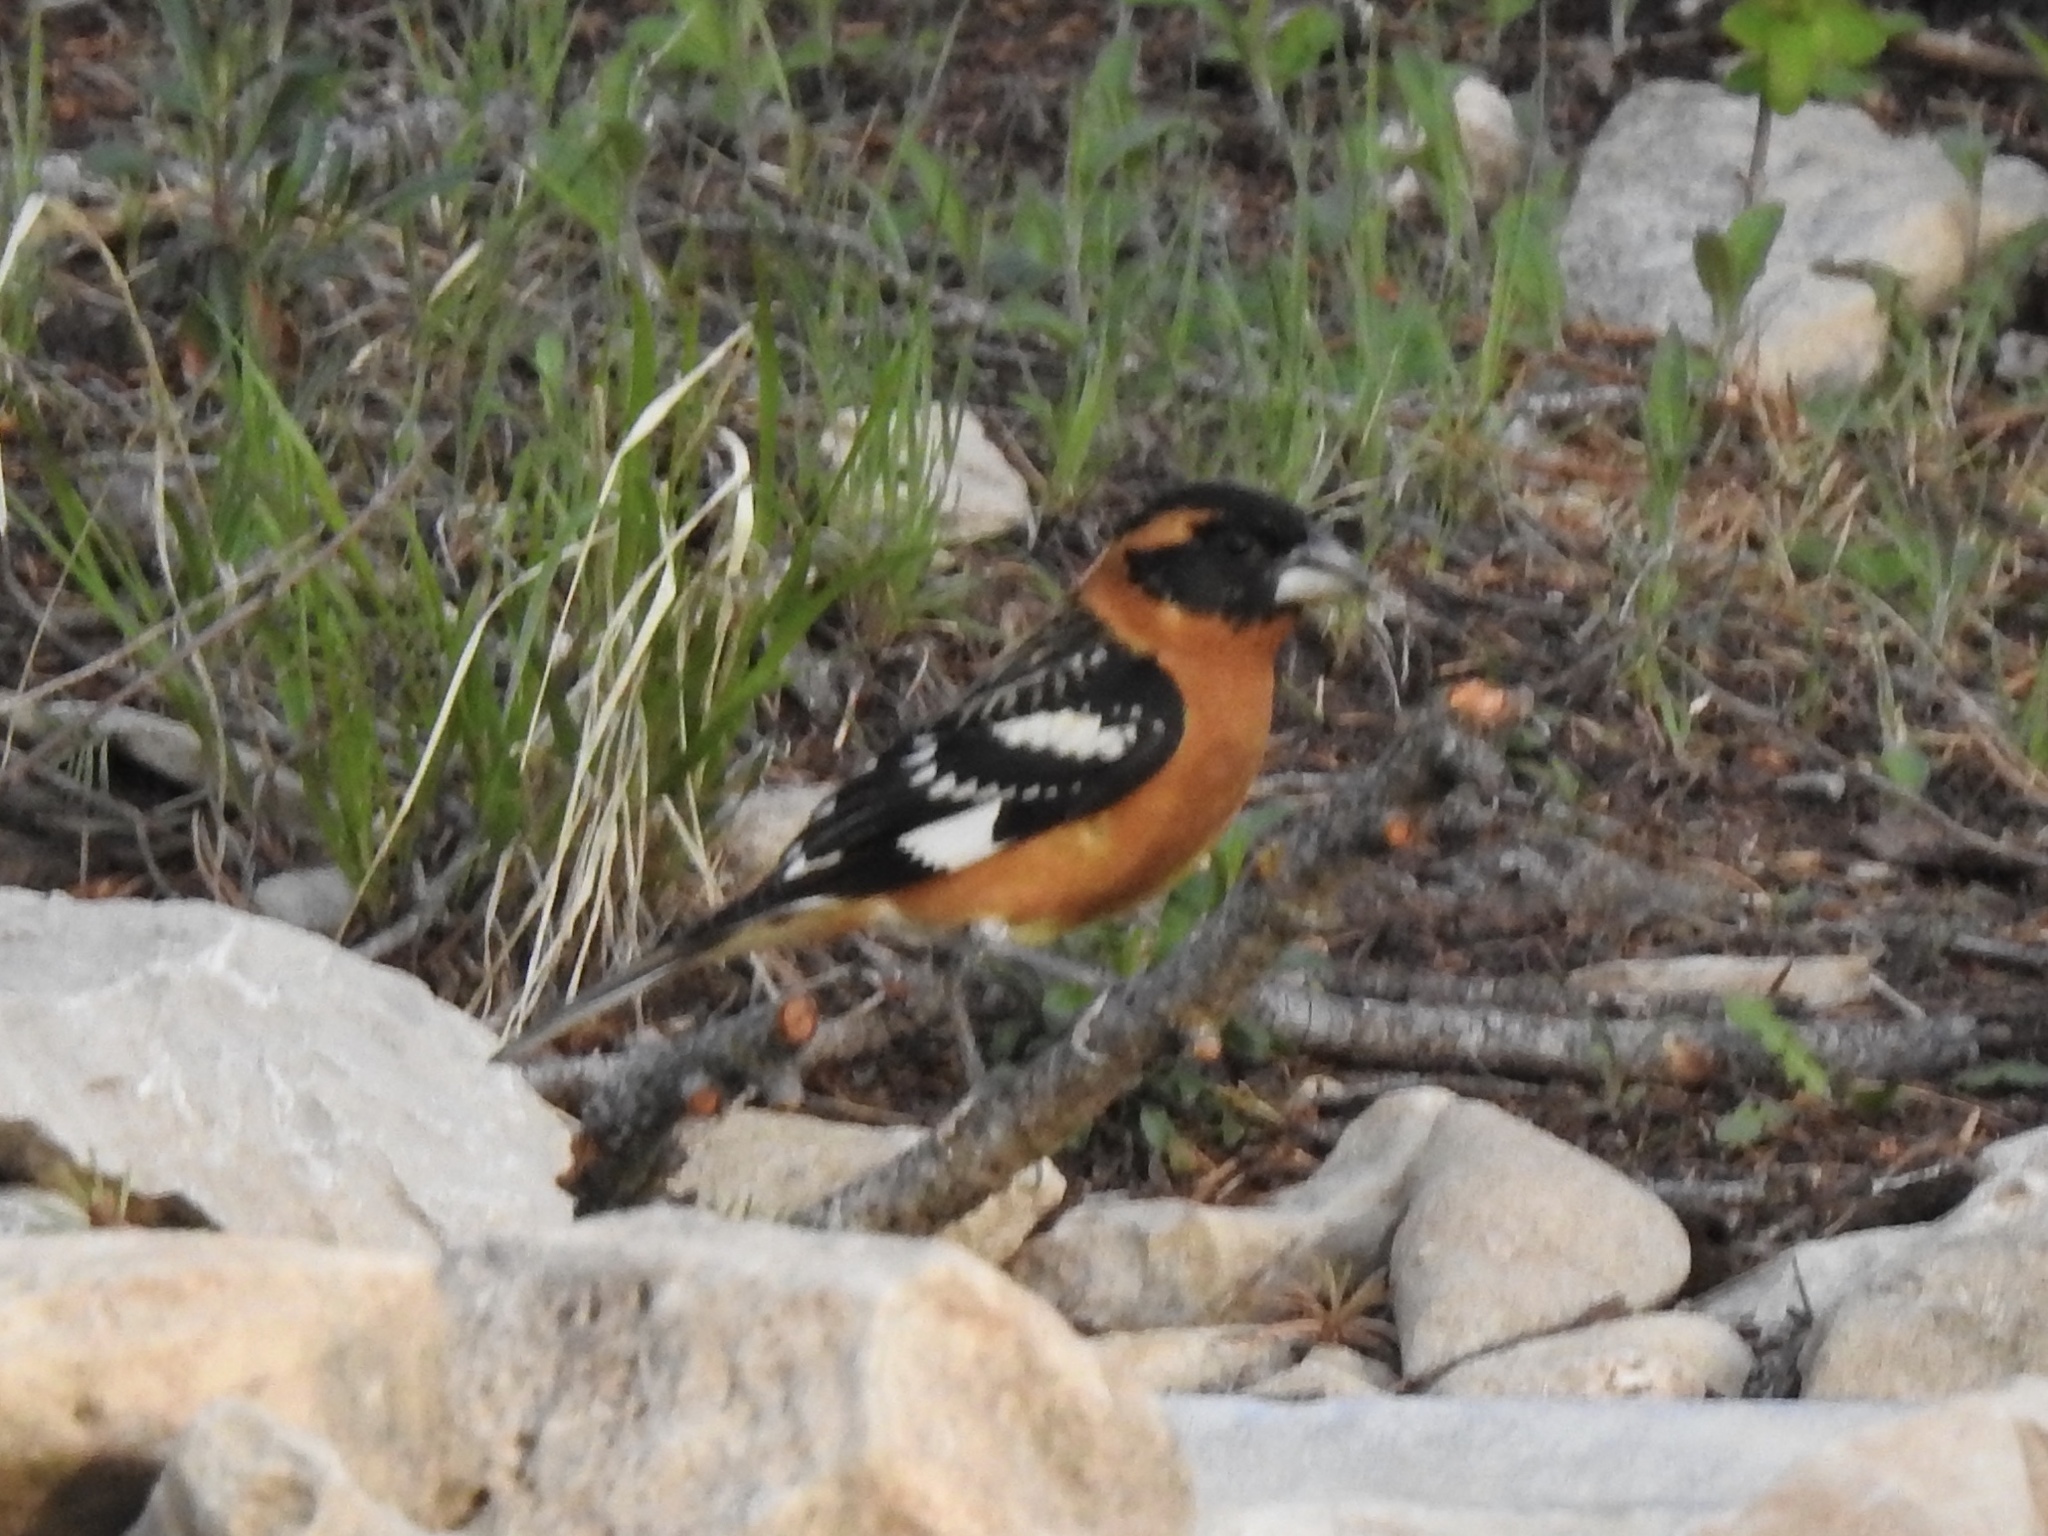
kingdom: Animalia
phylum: Chordata
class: Aves
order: Passeriformes
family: Cardinalidae
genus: Pheucticus
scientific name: Pheucticus melanocephalus
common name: Black-headed grosbeak
